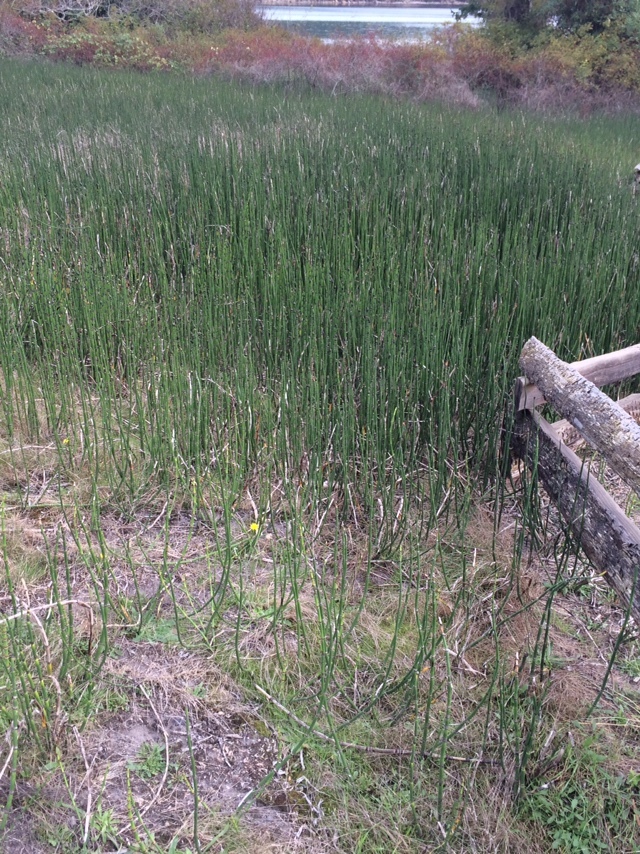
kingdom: Plantae
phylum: Tracheophyta
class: Polypodiopsida
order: Equisetales
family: Equisetaceae
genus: Equisetum
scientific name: Equisetum praealtum
